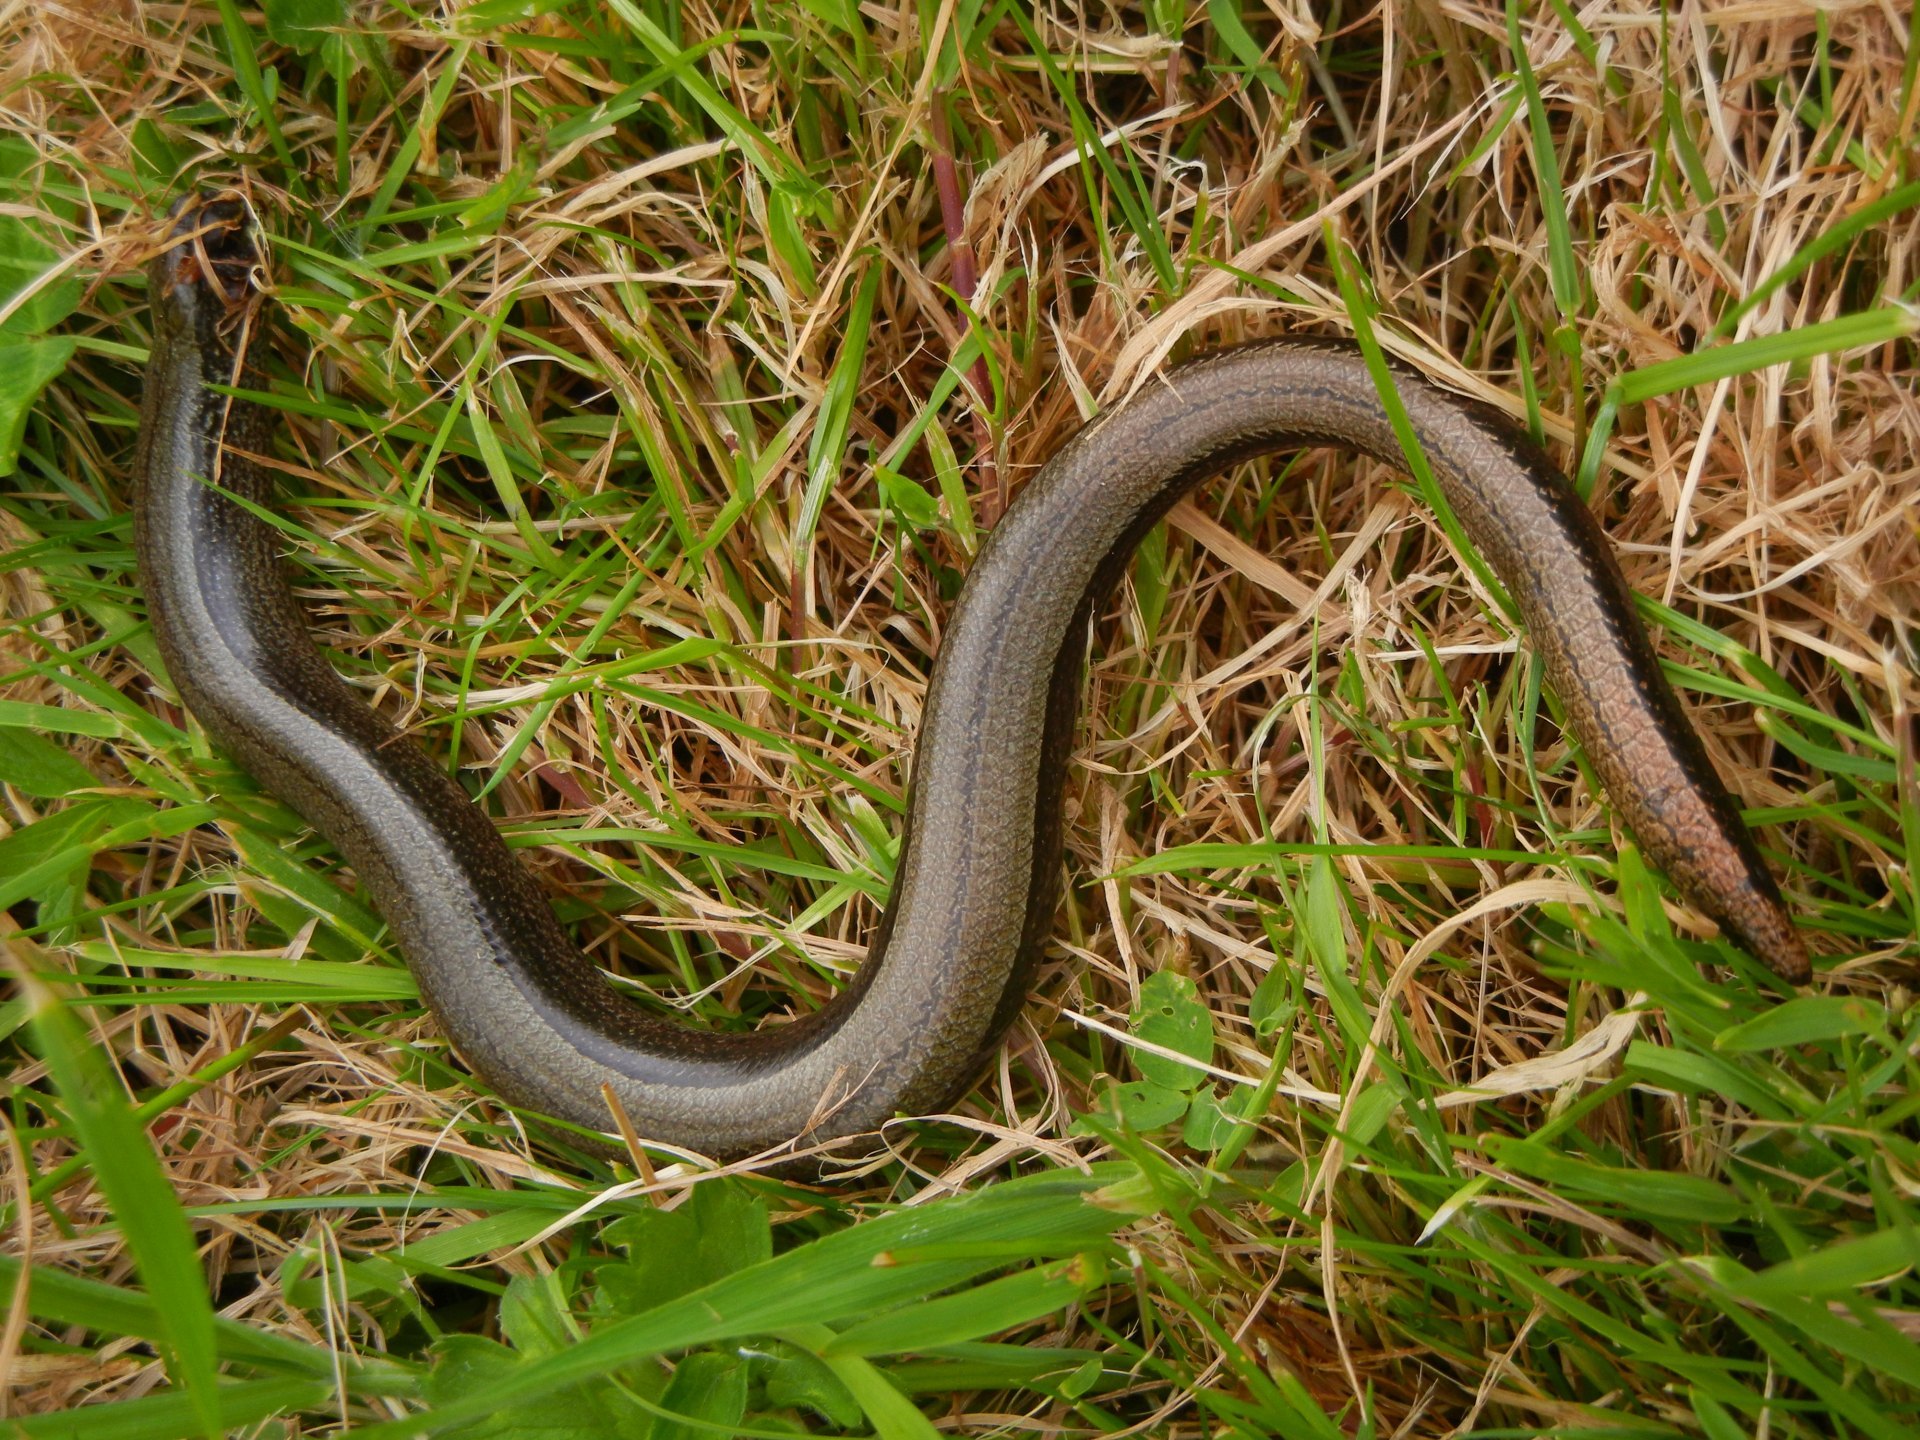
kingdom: Animalia
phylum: Chordata
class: Squamata
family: Anguidae
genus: Anguis
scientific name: Anguis fragilis
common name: Slow worm
